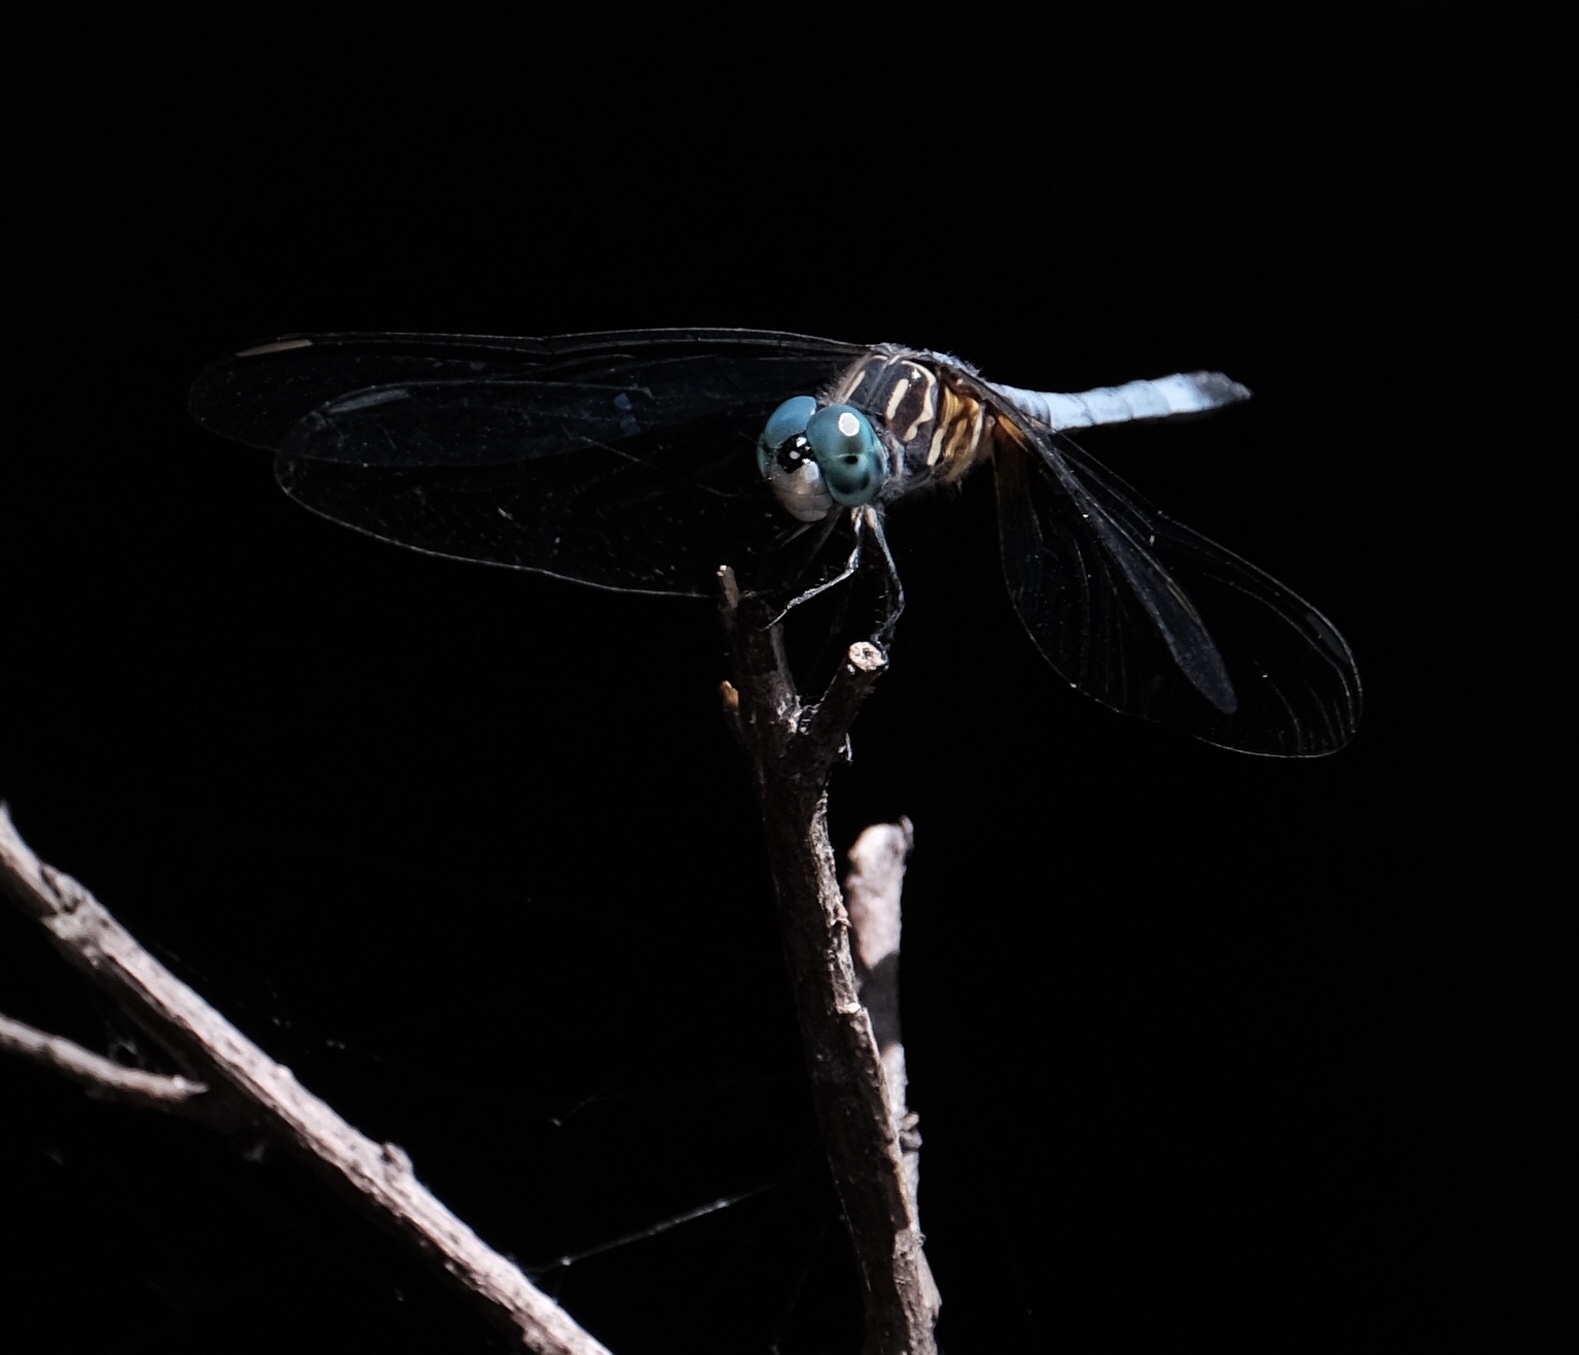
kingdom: Animalia
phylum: Arthropoda
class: Insecta
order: Odonata
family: Libellulidae
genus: Pachydiplax
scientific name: Pachydiplax longipennis
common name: Blue dasher
